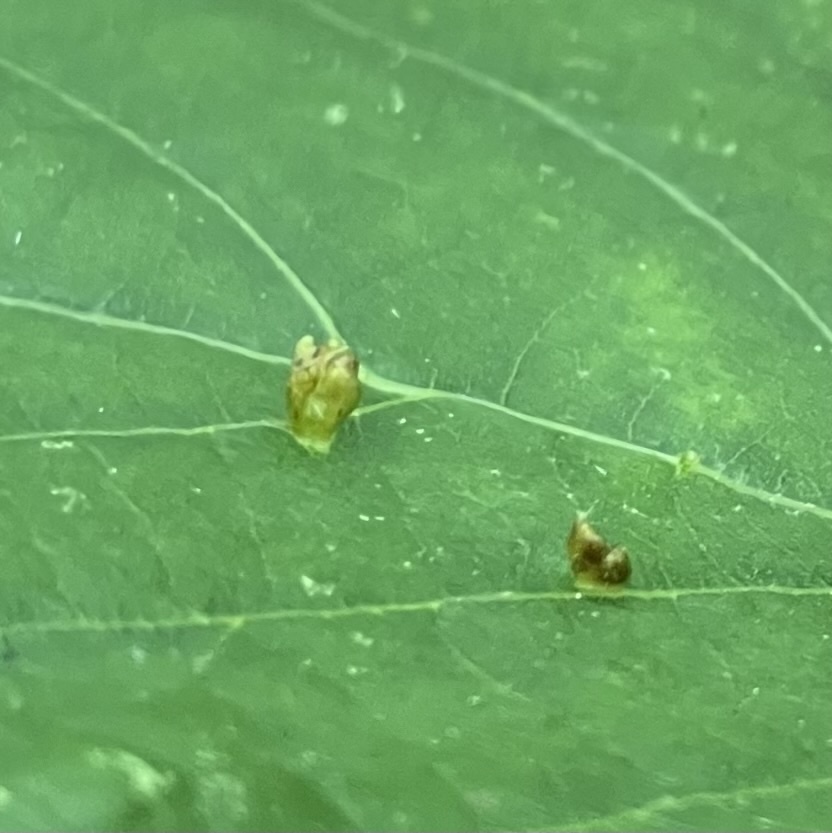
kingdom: Animalia
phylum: Arthropoda
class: Arachnida
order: Trombidiformes
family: Eriophyidae
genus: Eriophyes
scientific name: Eriophyes tiliae
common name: Red nail gall mite
